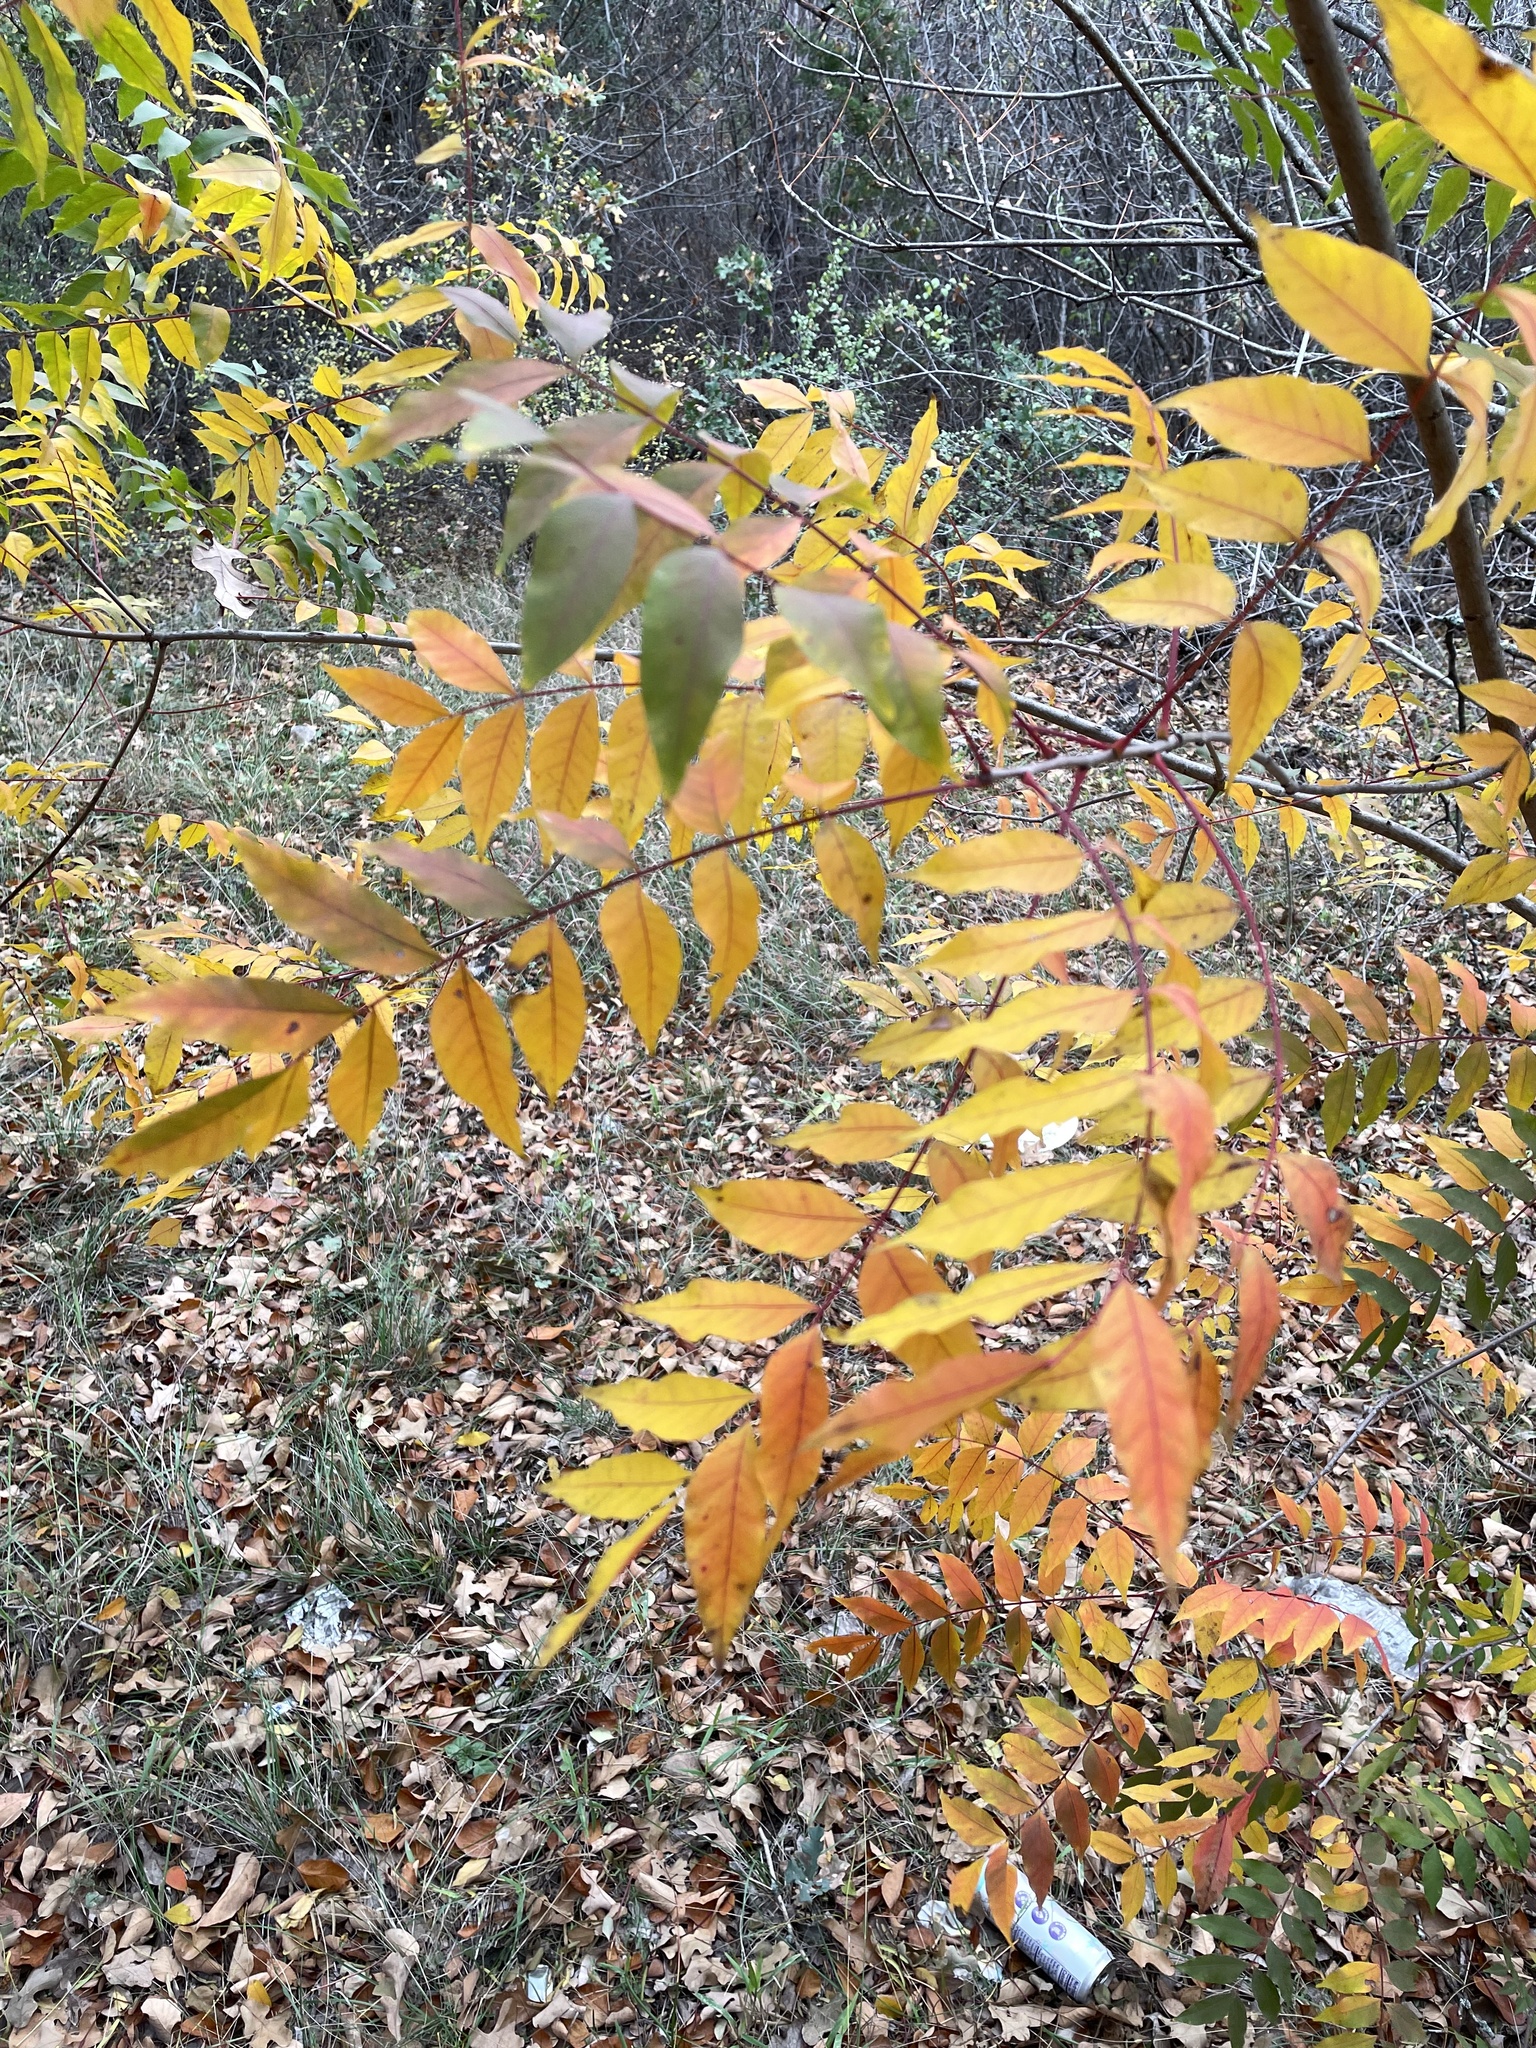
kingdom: Plantae
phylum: Tracheophyta
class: Magnoliopsida
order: Sapindales
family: Anacardiaceae
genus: Pistacia
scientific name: Pistacia chinensis
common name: Chinese pistache
